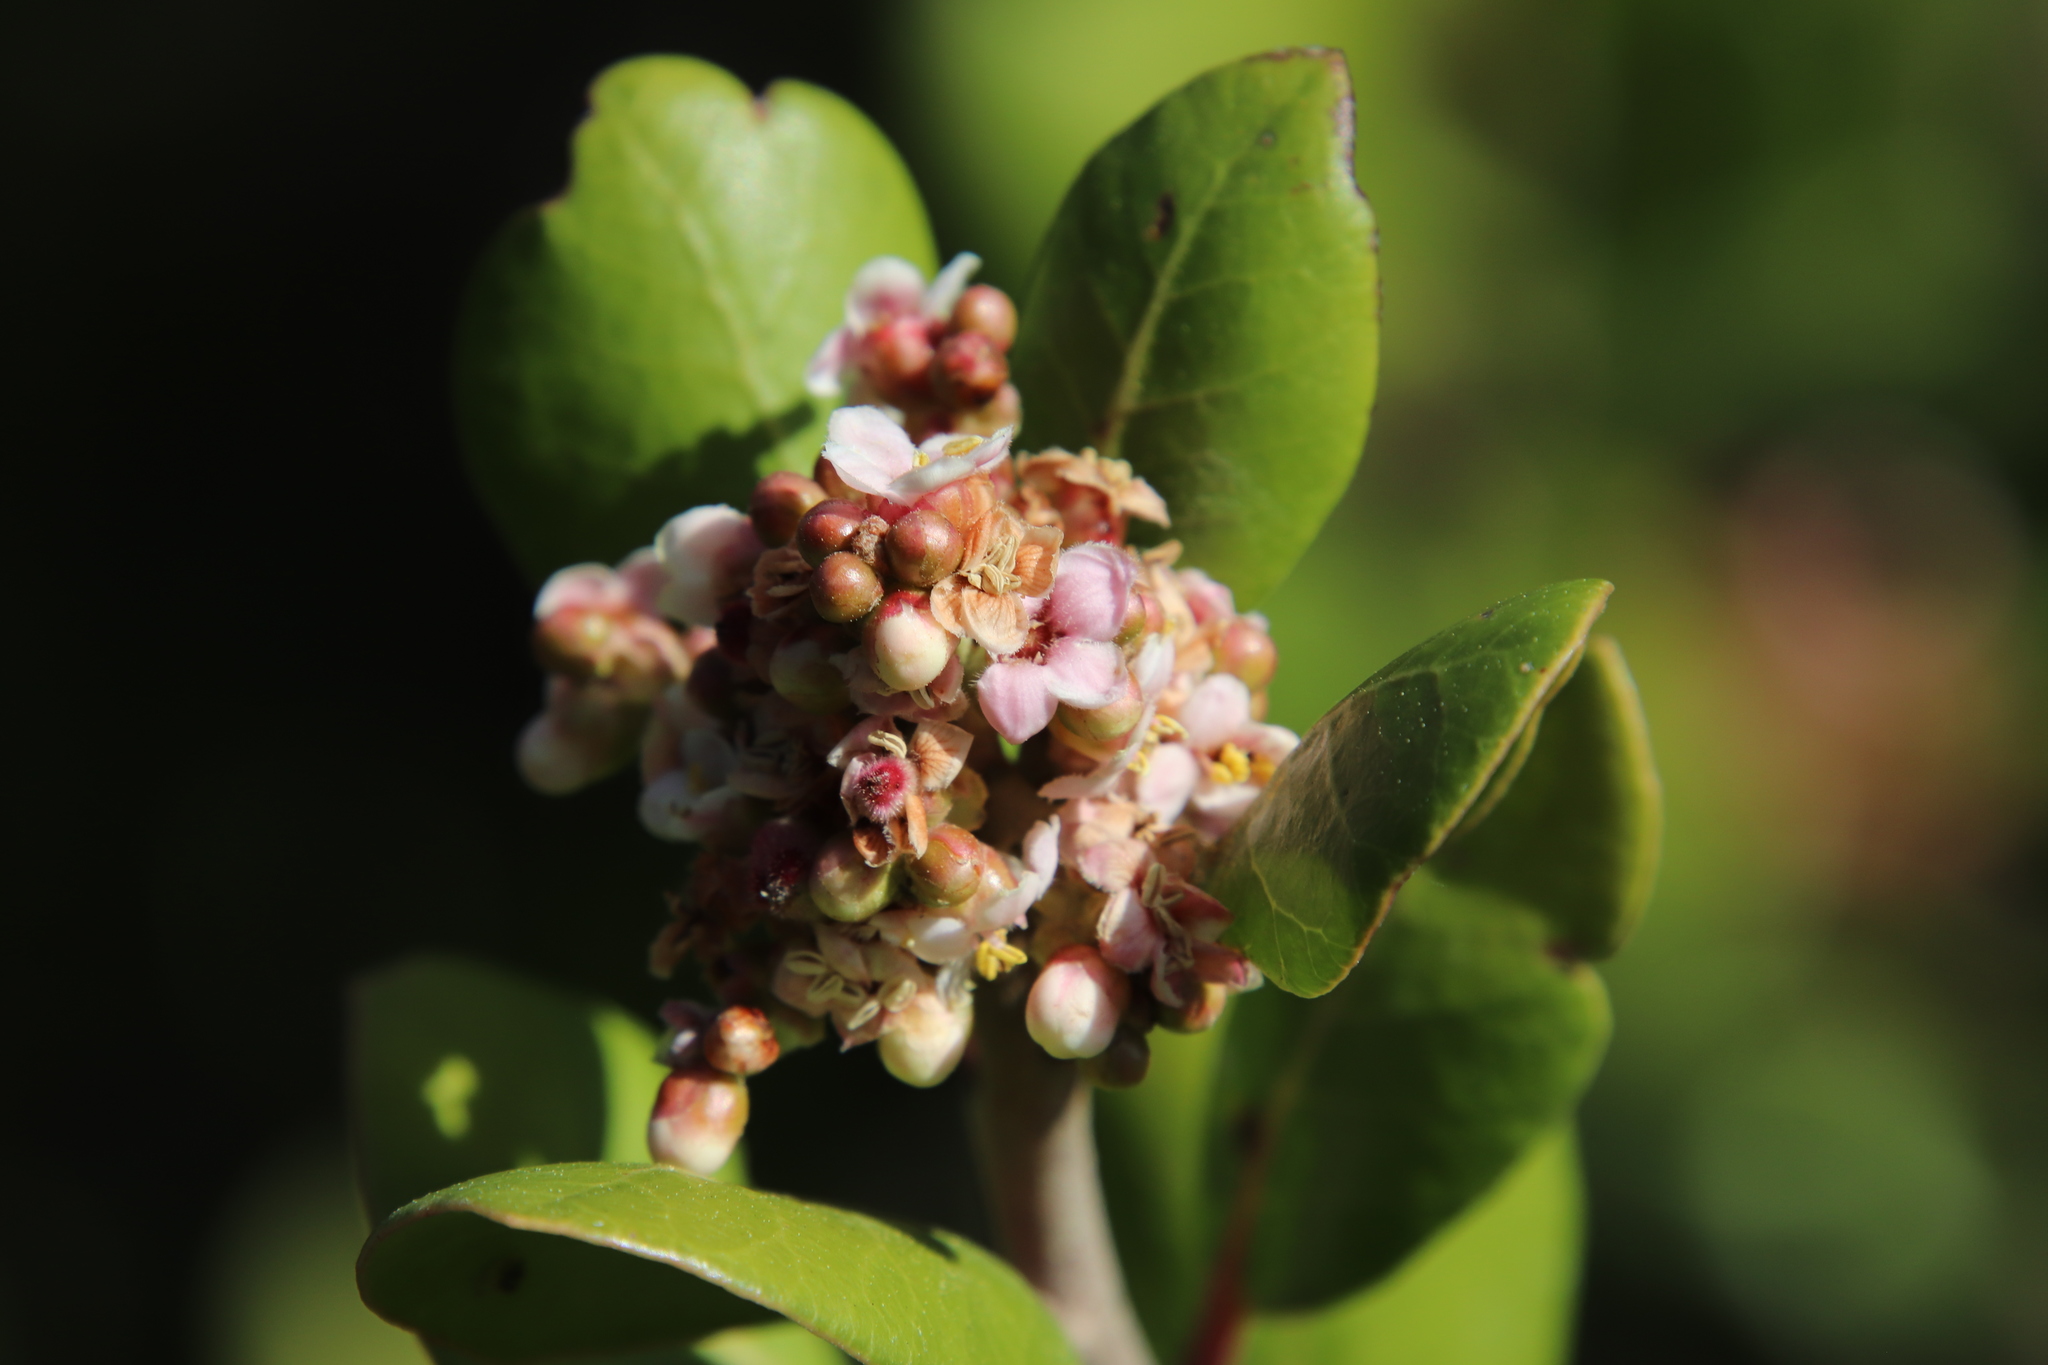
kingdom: Plantae
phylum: Tracheophyta
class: Magnoliopsida
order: Sapindales
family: Anacardiaceae
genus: Rhus
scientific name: Rhus integrifolia
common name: Lemonade sumac
